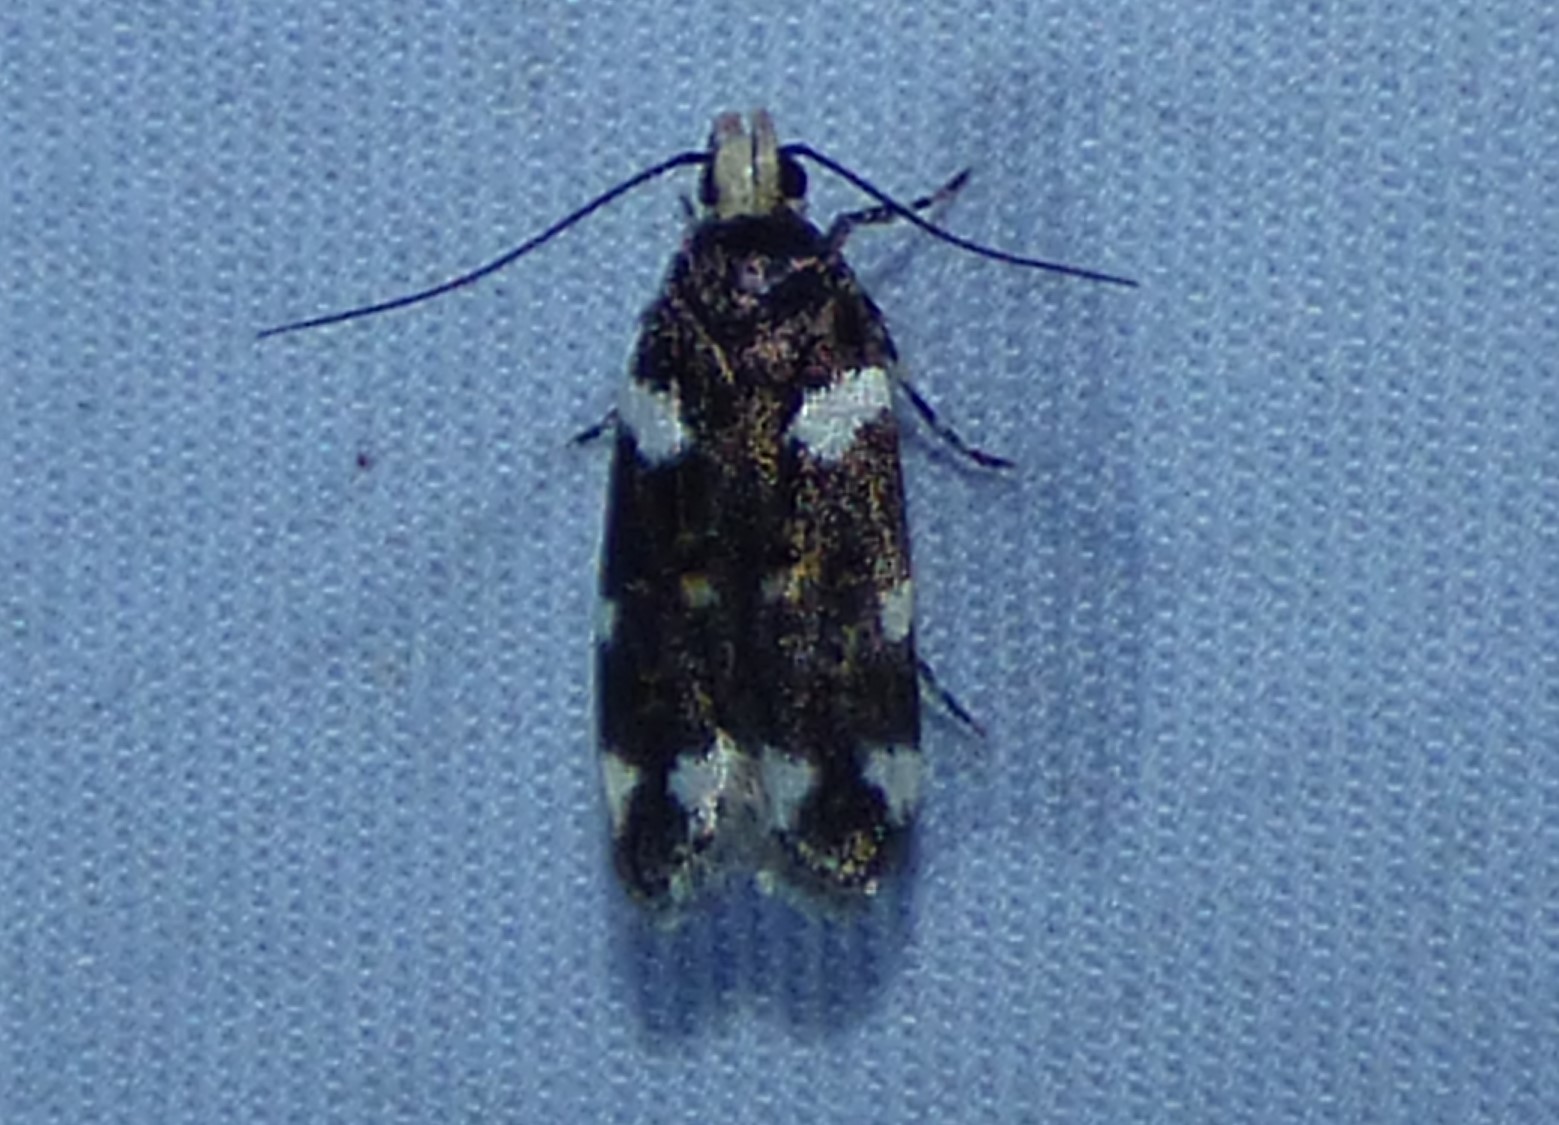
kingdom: Animalia
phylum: Arthropoda
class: Insecta
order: Lepidoptera
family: Gelechiidae
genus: Fascista
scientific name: Fascista cercerisella
